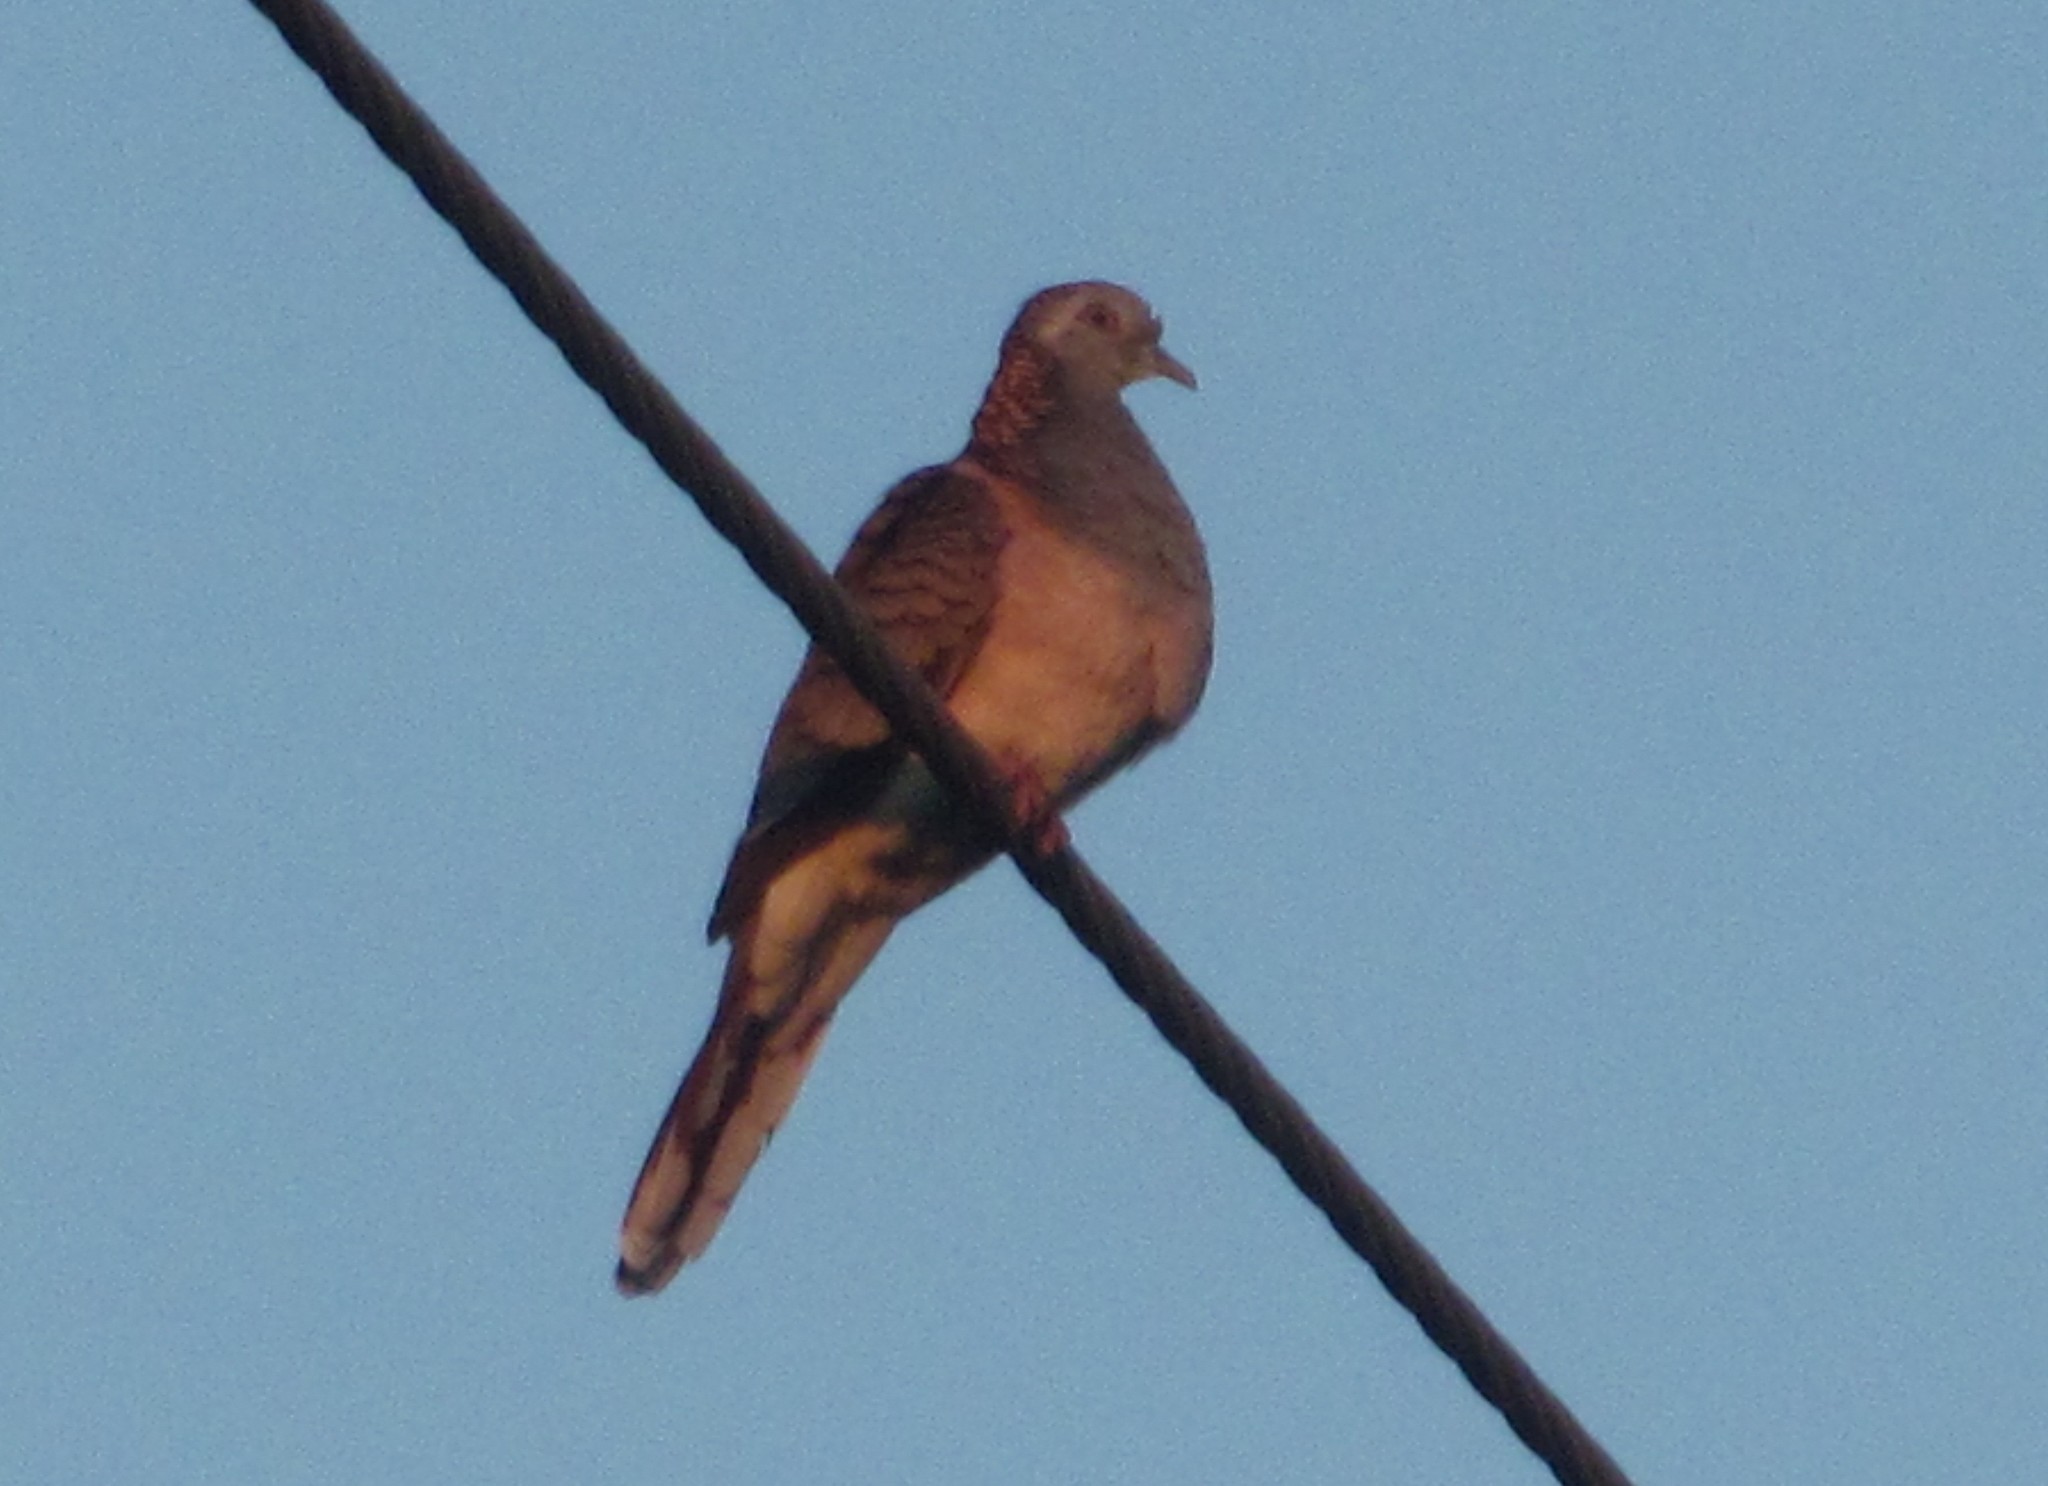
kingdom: Animalia
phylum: Chordata
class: Aves
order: Columbiformes
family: Columbidae
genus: Geopelia
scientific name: Geopelia humeralis
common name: Bar-shouldered dove
